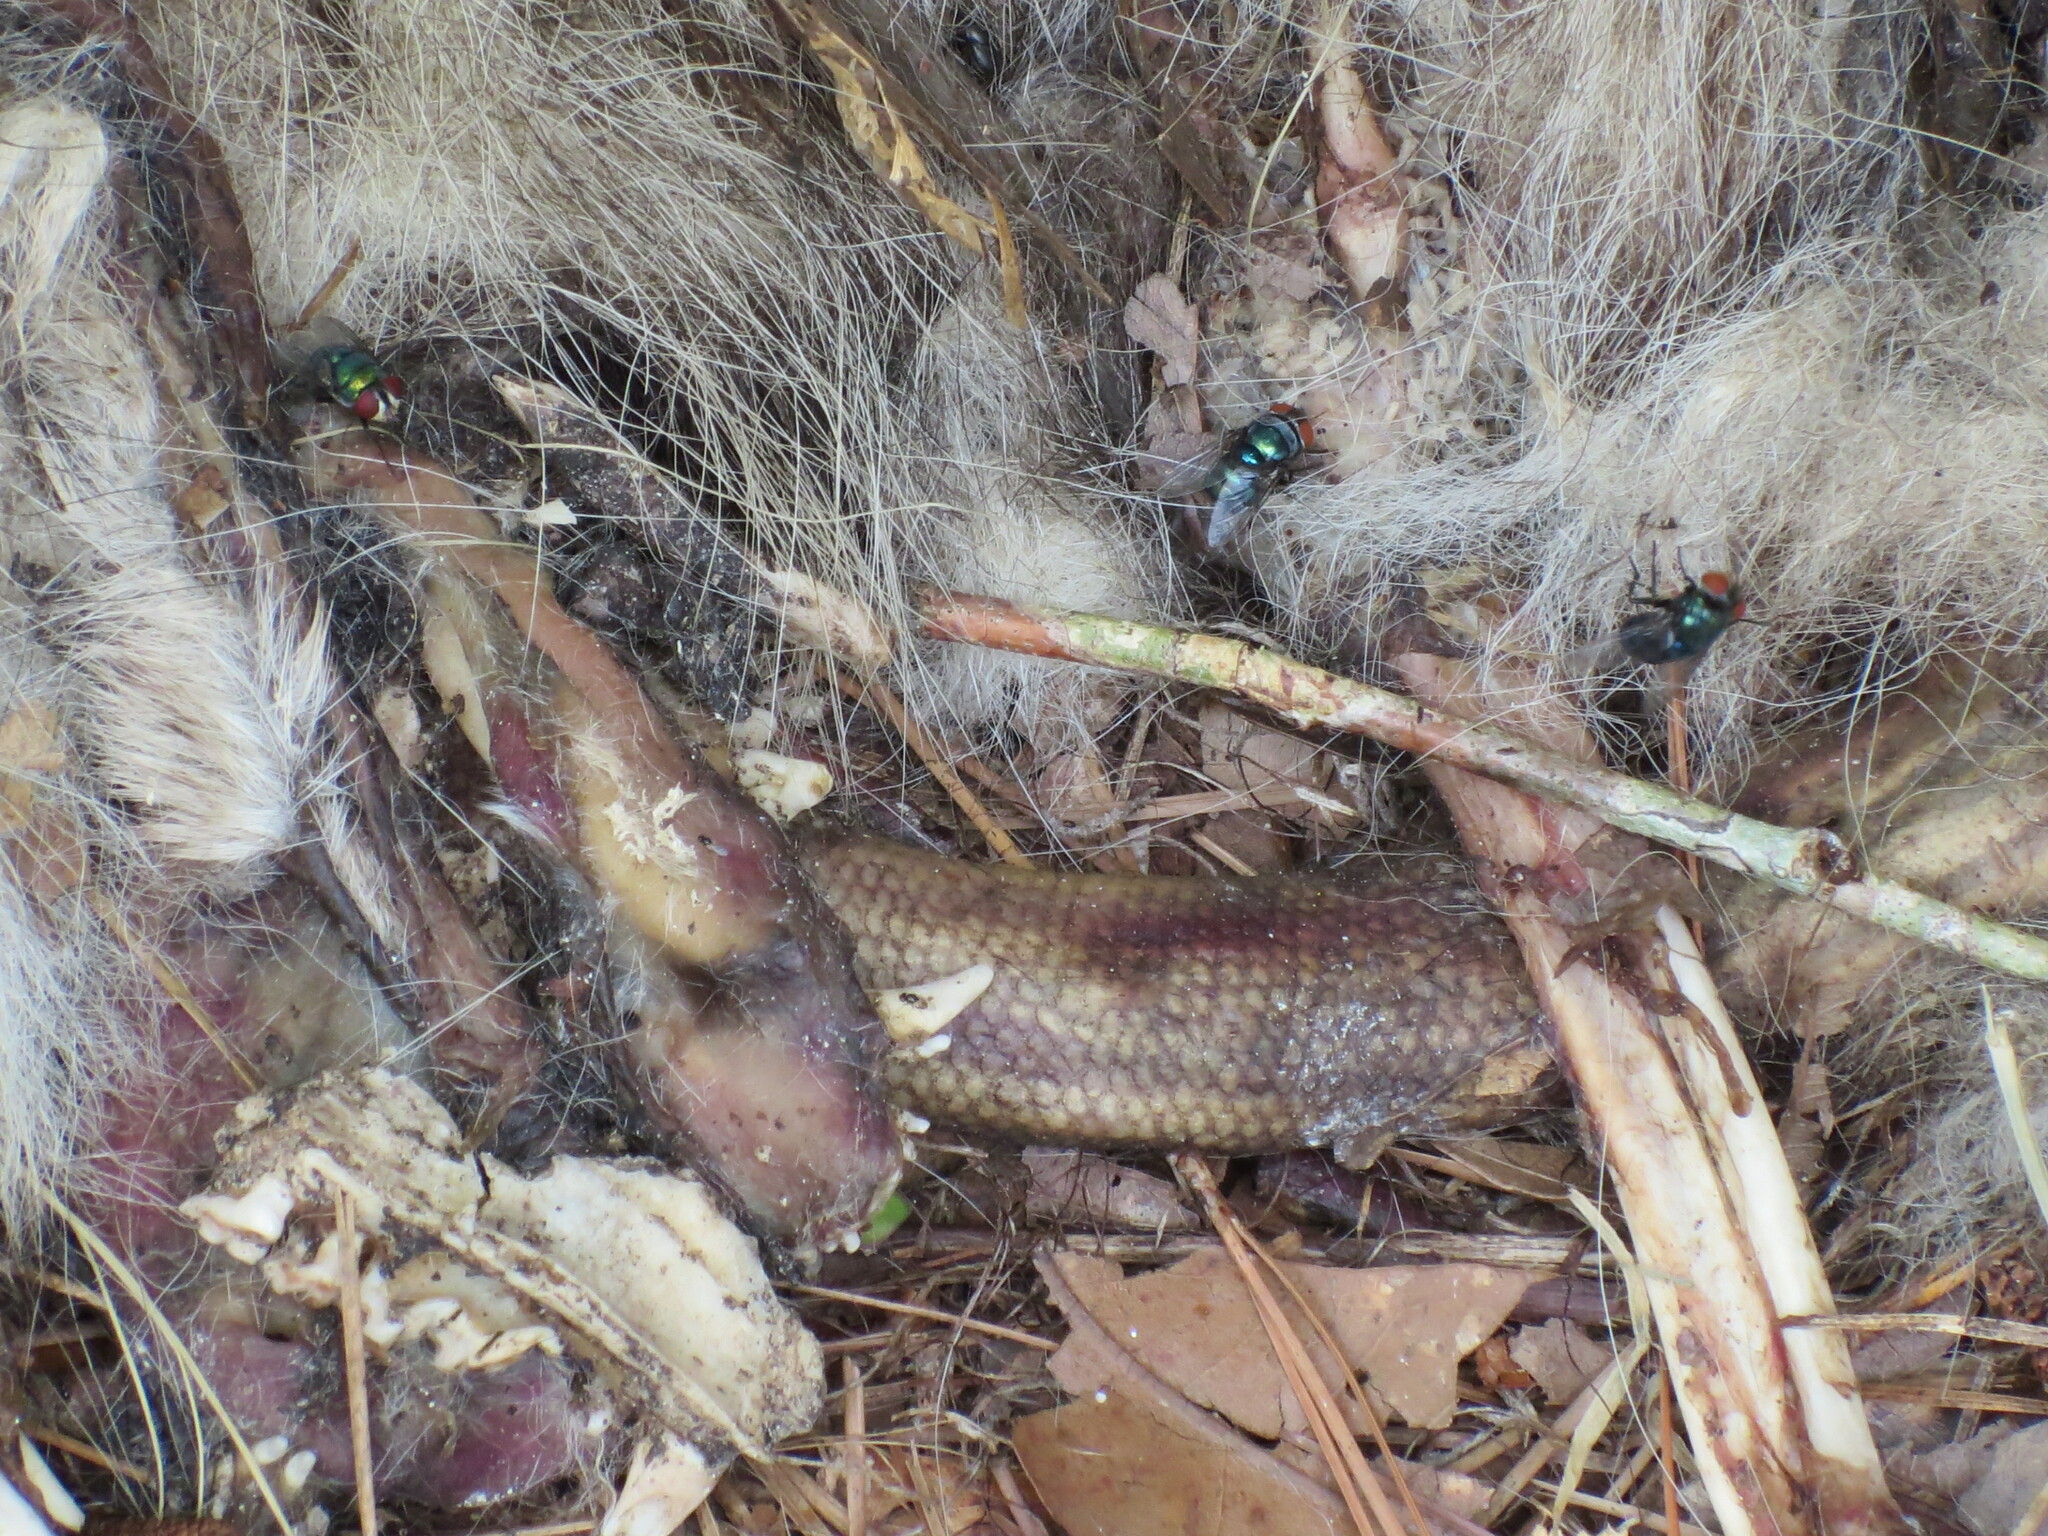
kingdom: Animalia
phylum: Chordata
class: Mammalia
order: Didelphimorphia
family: Didelphidae
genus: Didelphis
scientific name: Didelphis virginiana
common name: Virginia opossum
